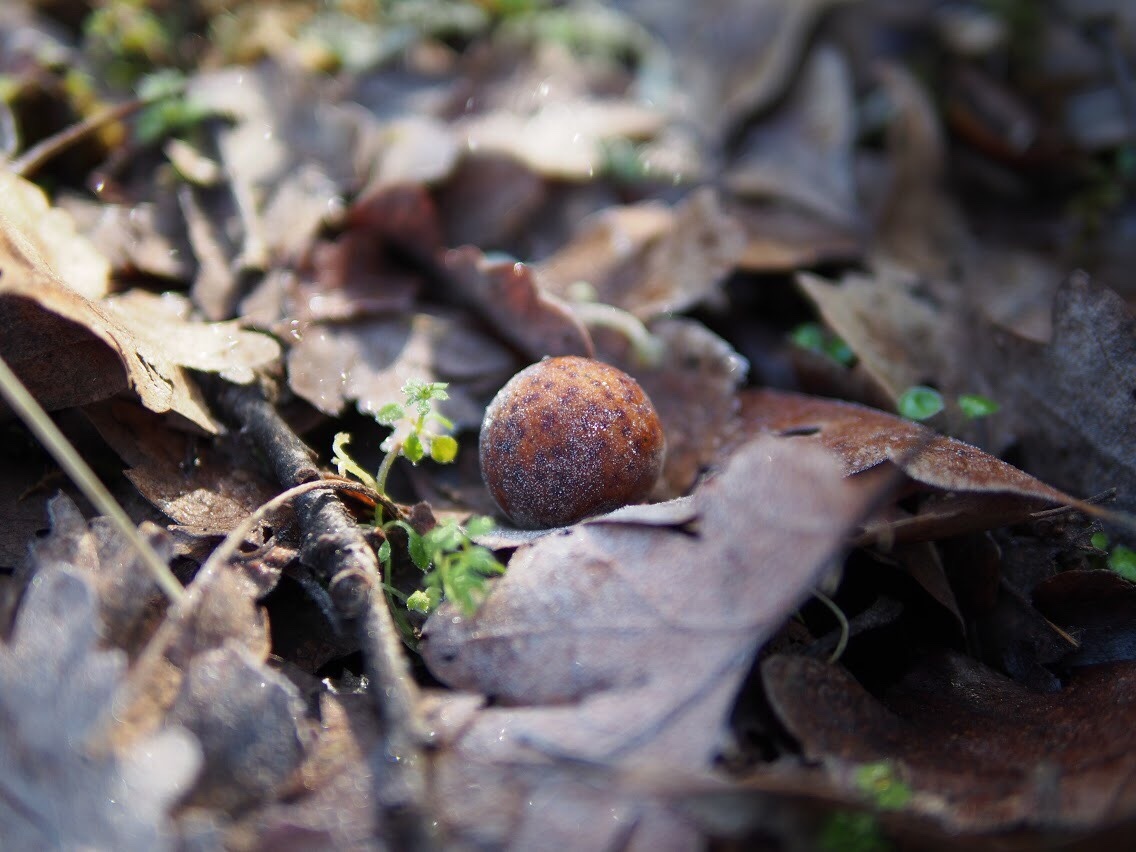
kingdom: Animalia
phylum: Arthropoda
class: Insecta
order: Hymenoptera
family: Cynipidae
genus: Cynips
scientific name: Cynips
